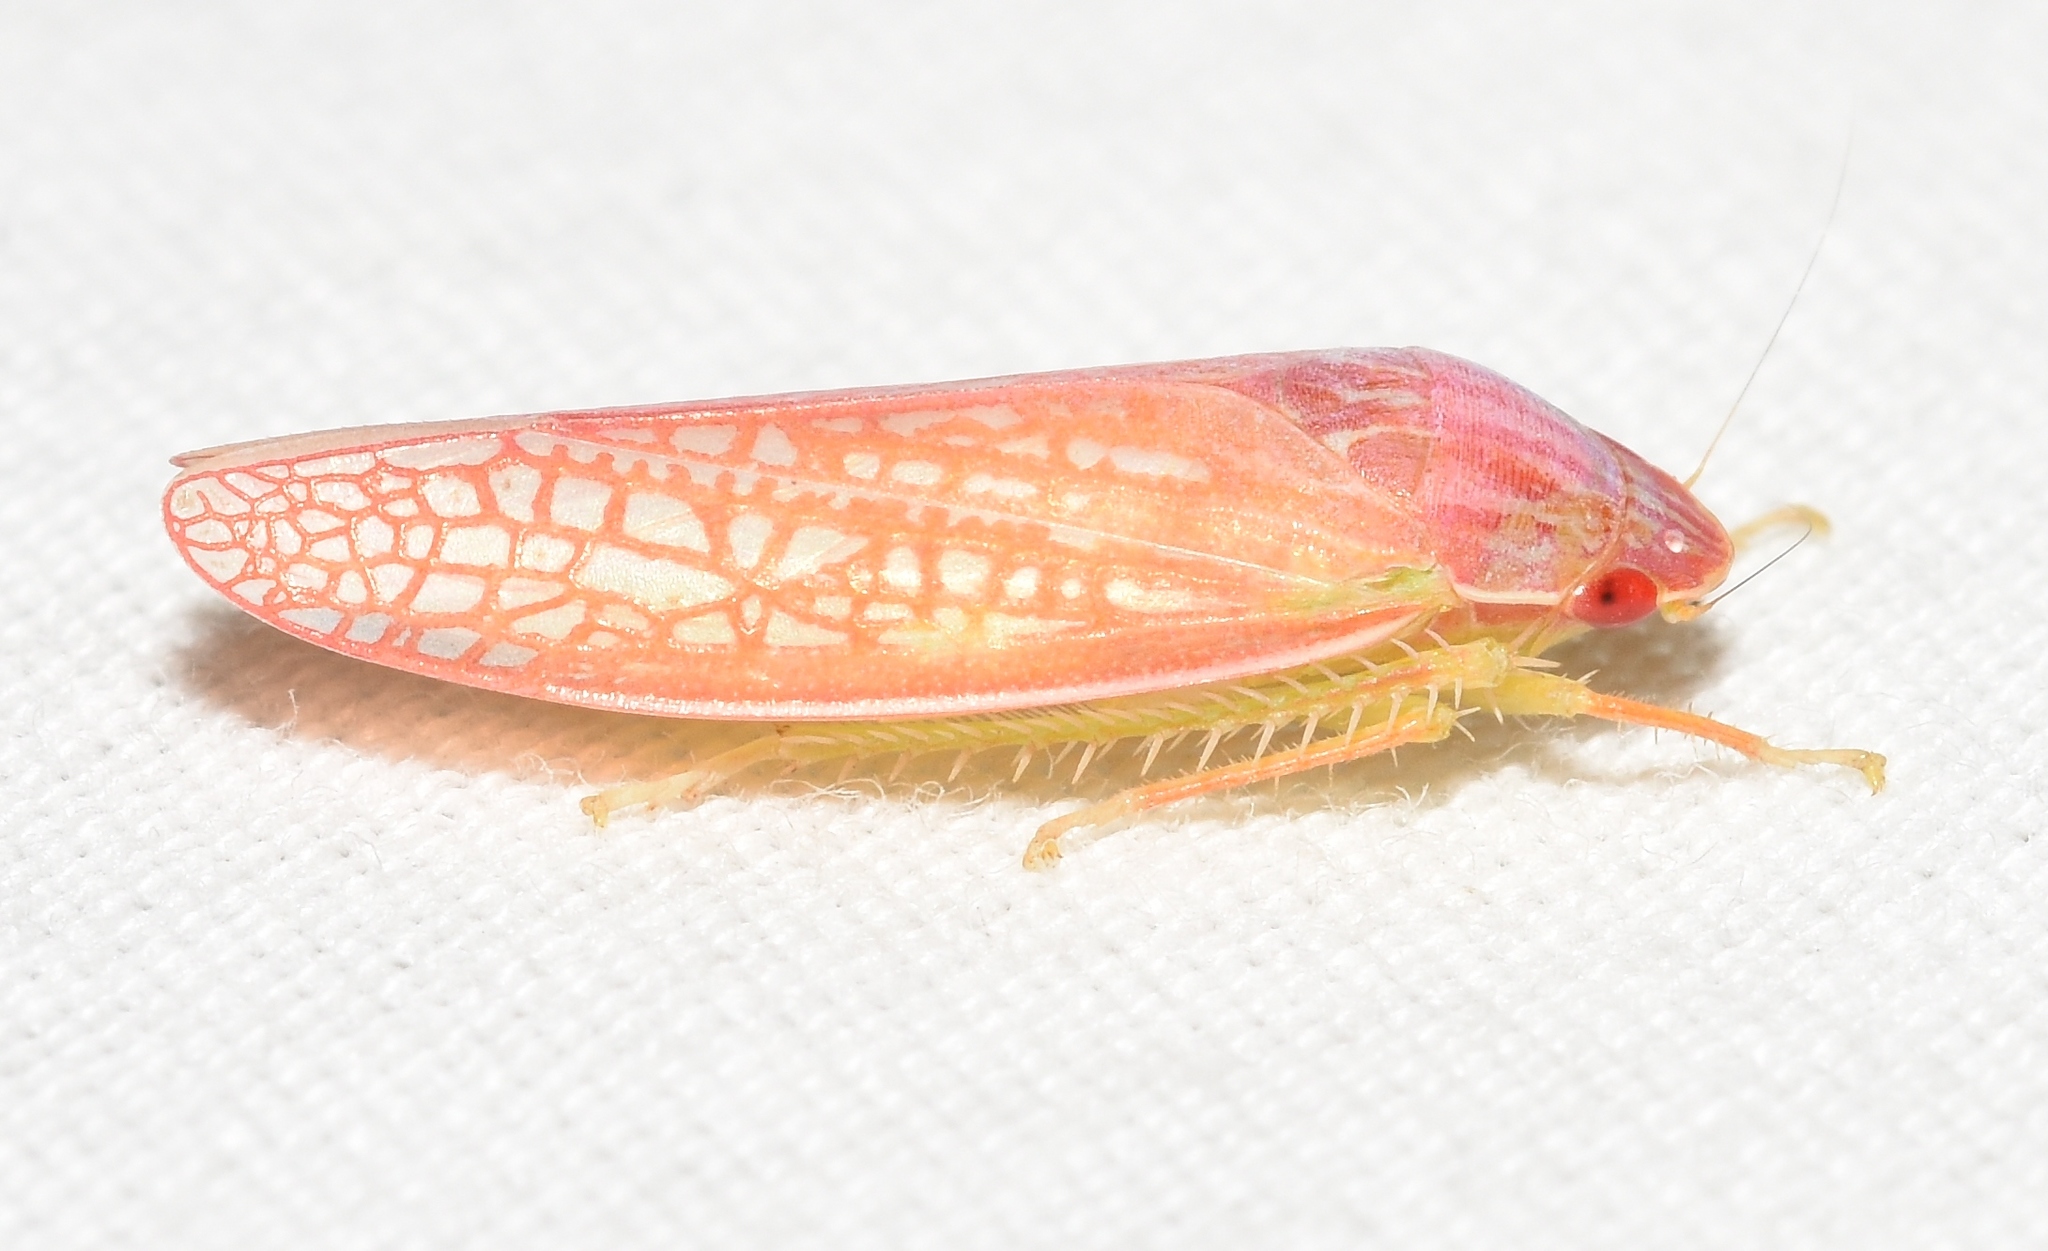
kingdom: Animalia
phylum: Arthropoda
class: Insecta
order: Hemiptera
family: Cicadellidae
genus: Gyponana
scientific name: Gyponana gladia
